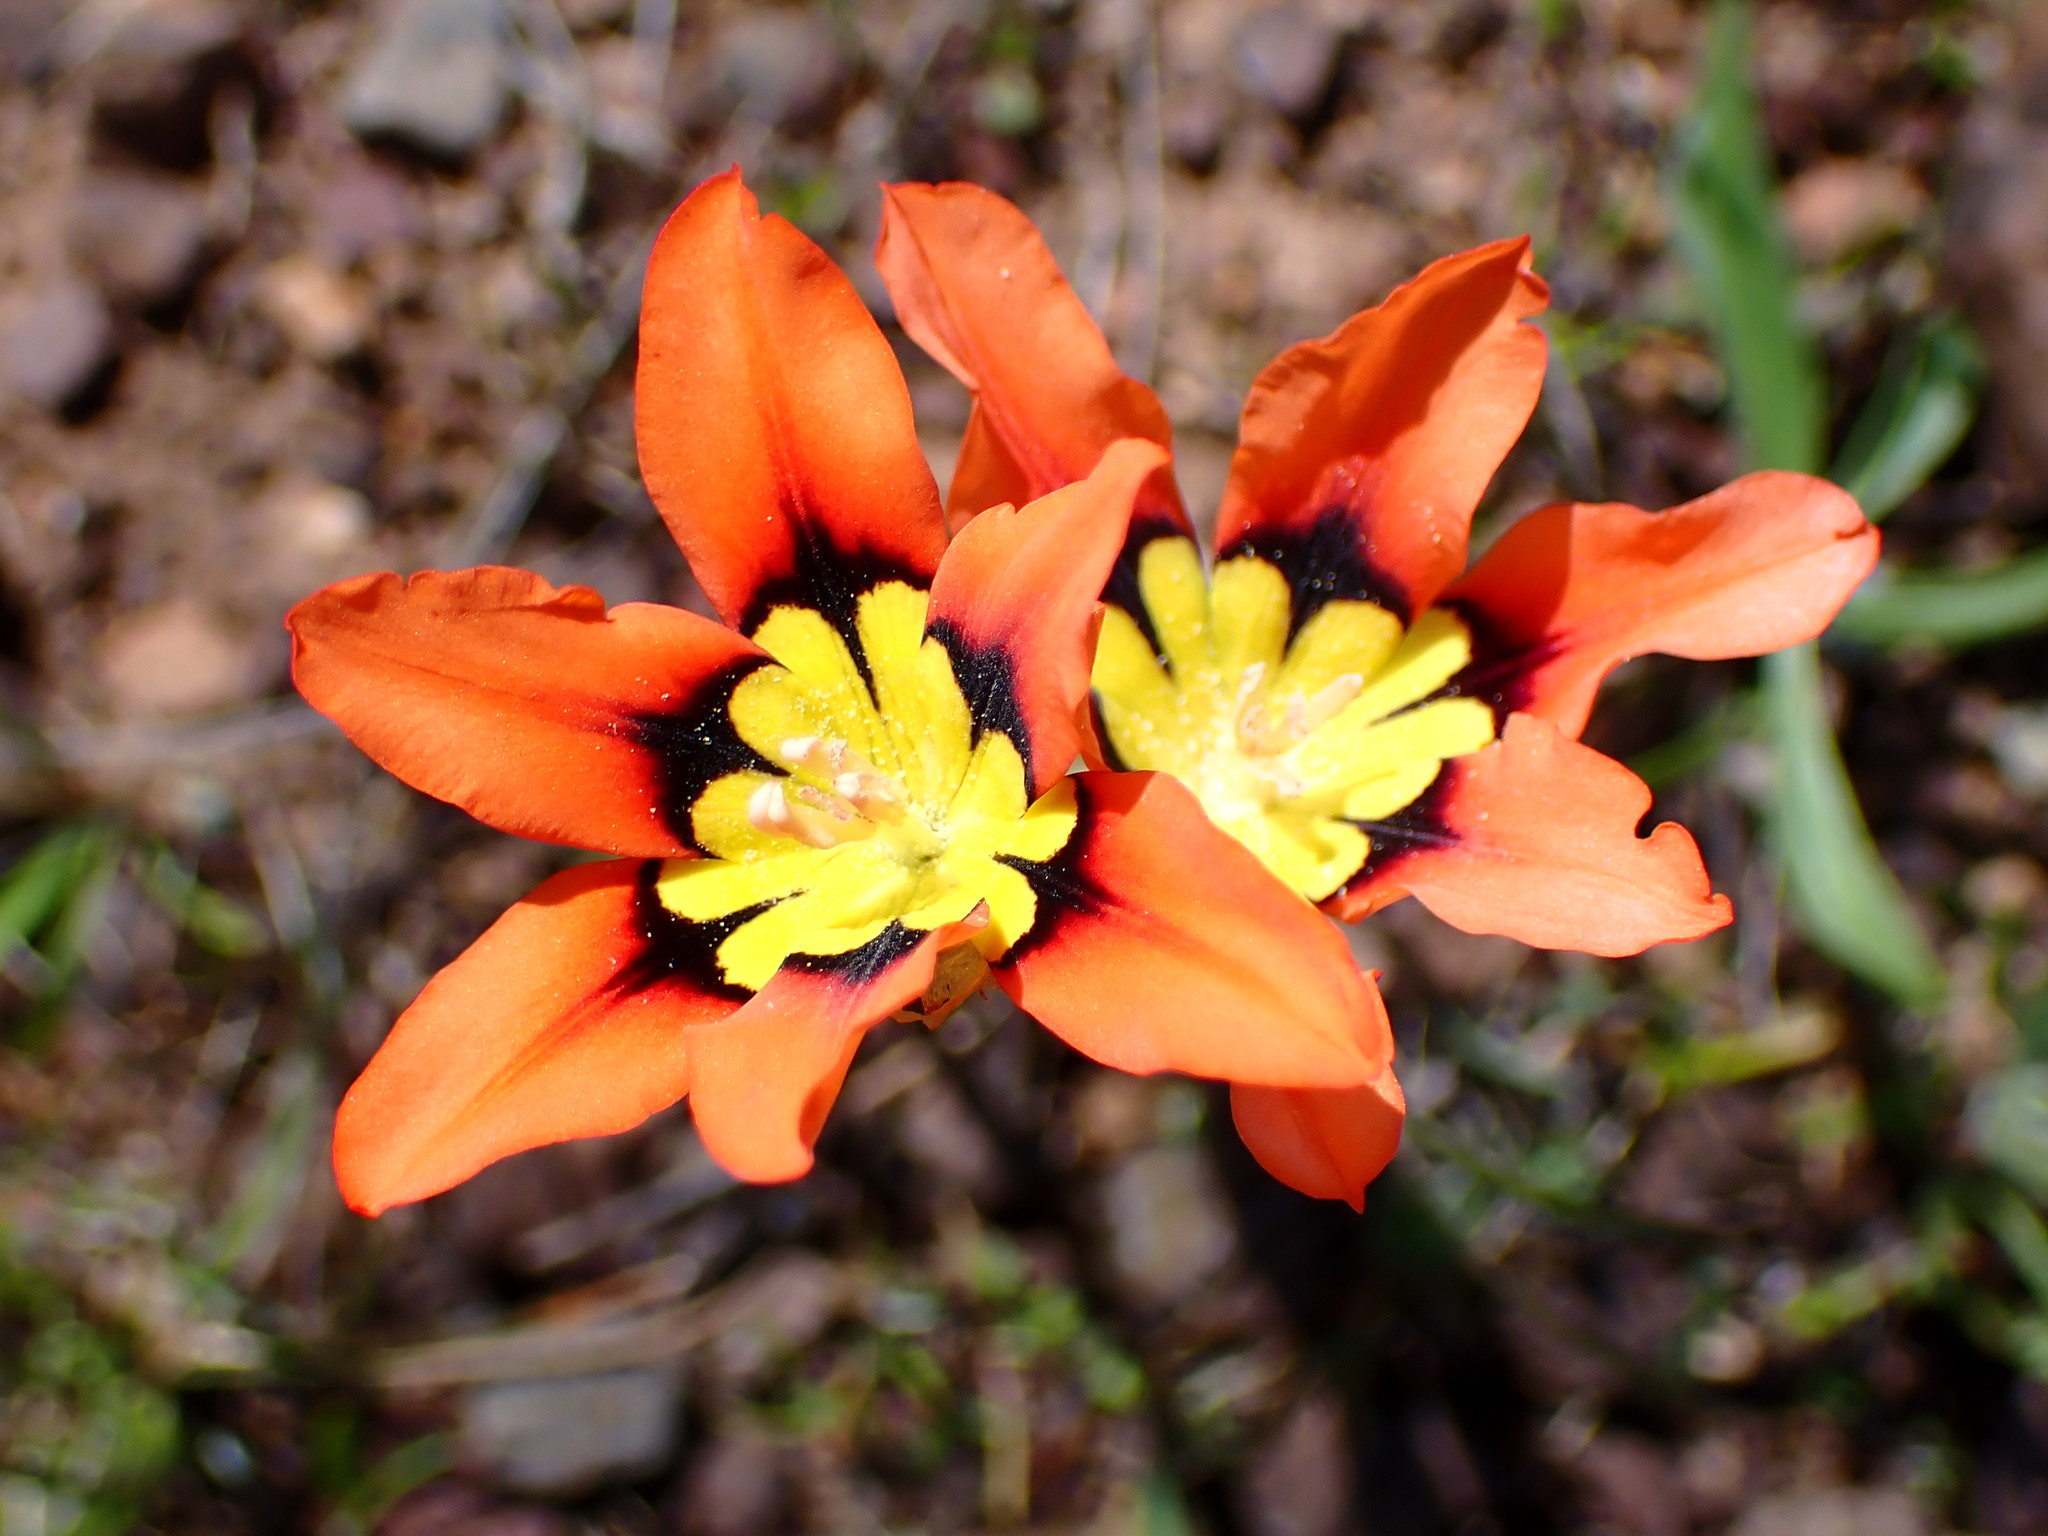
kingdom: Plantae
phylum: Tracheophyta
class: Liliopsida
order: Asparagales
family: Iridaceae
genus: Sparaxis
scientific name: Sparaxis tricolor
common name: Wandflower
